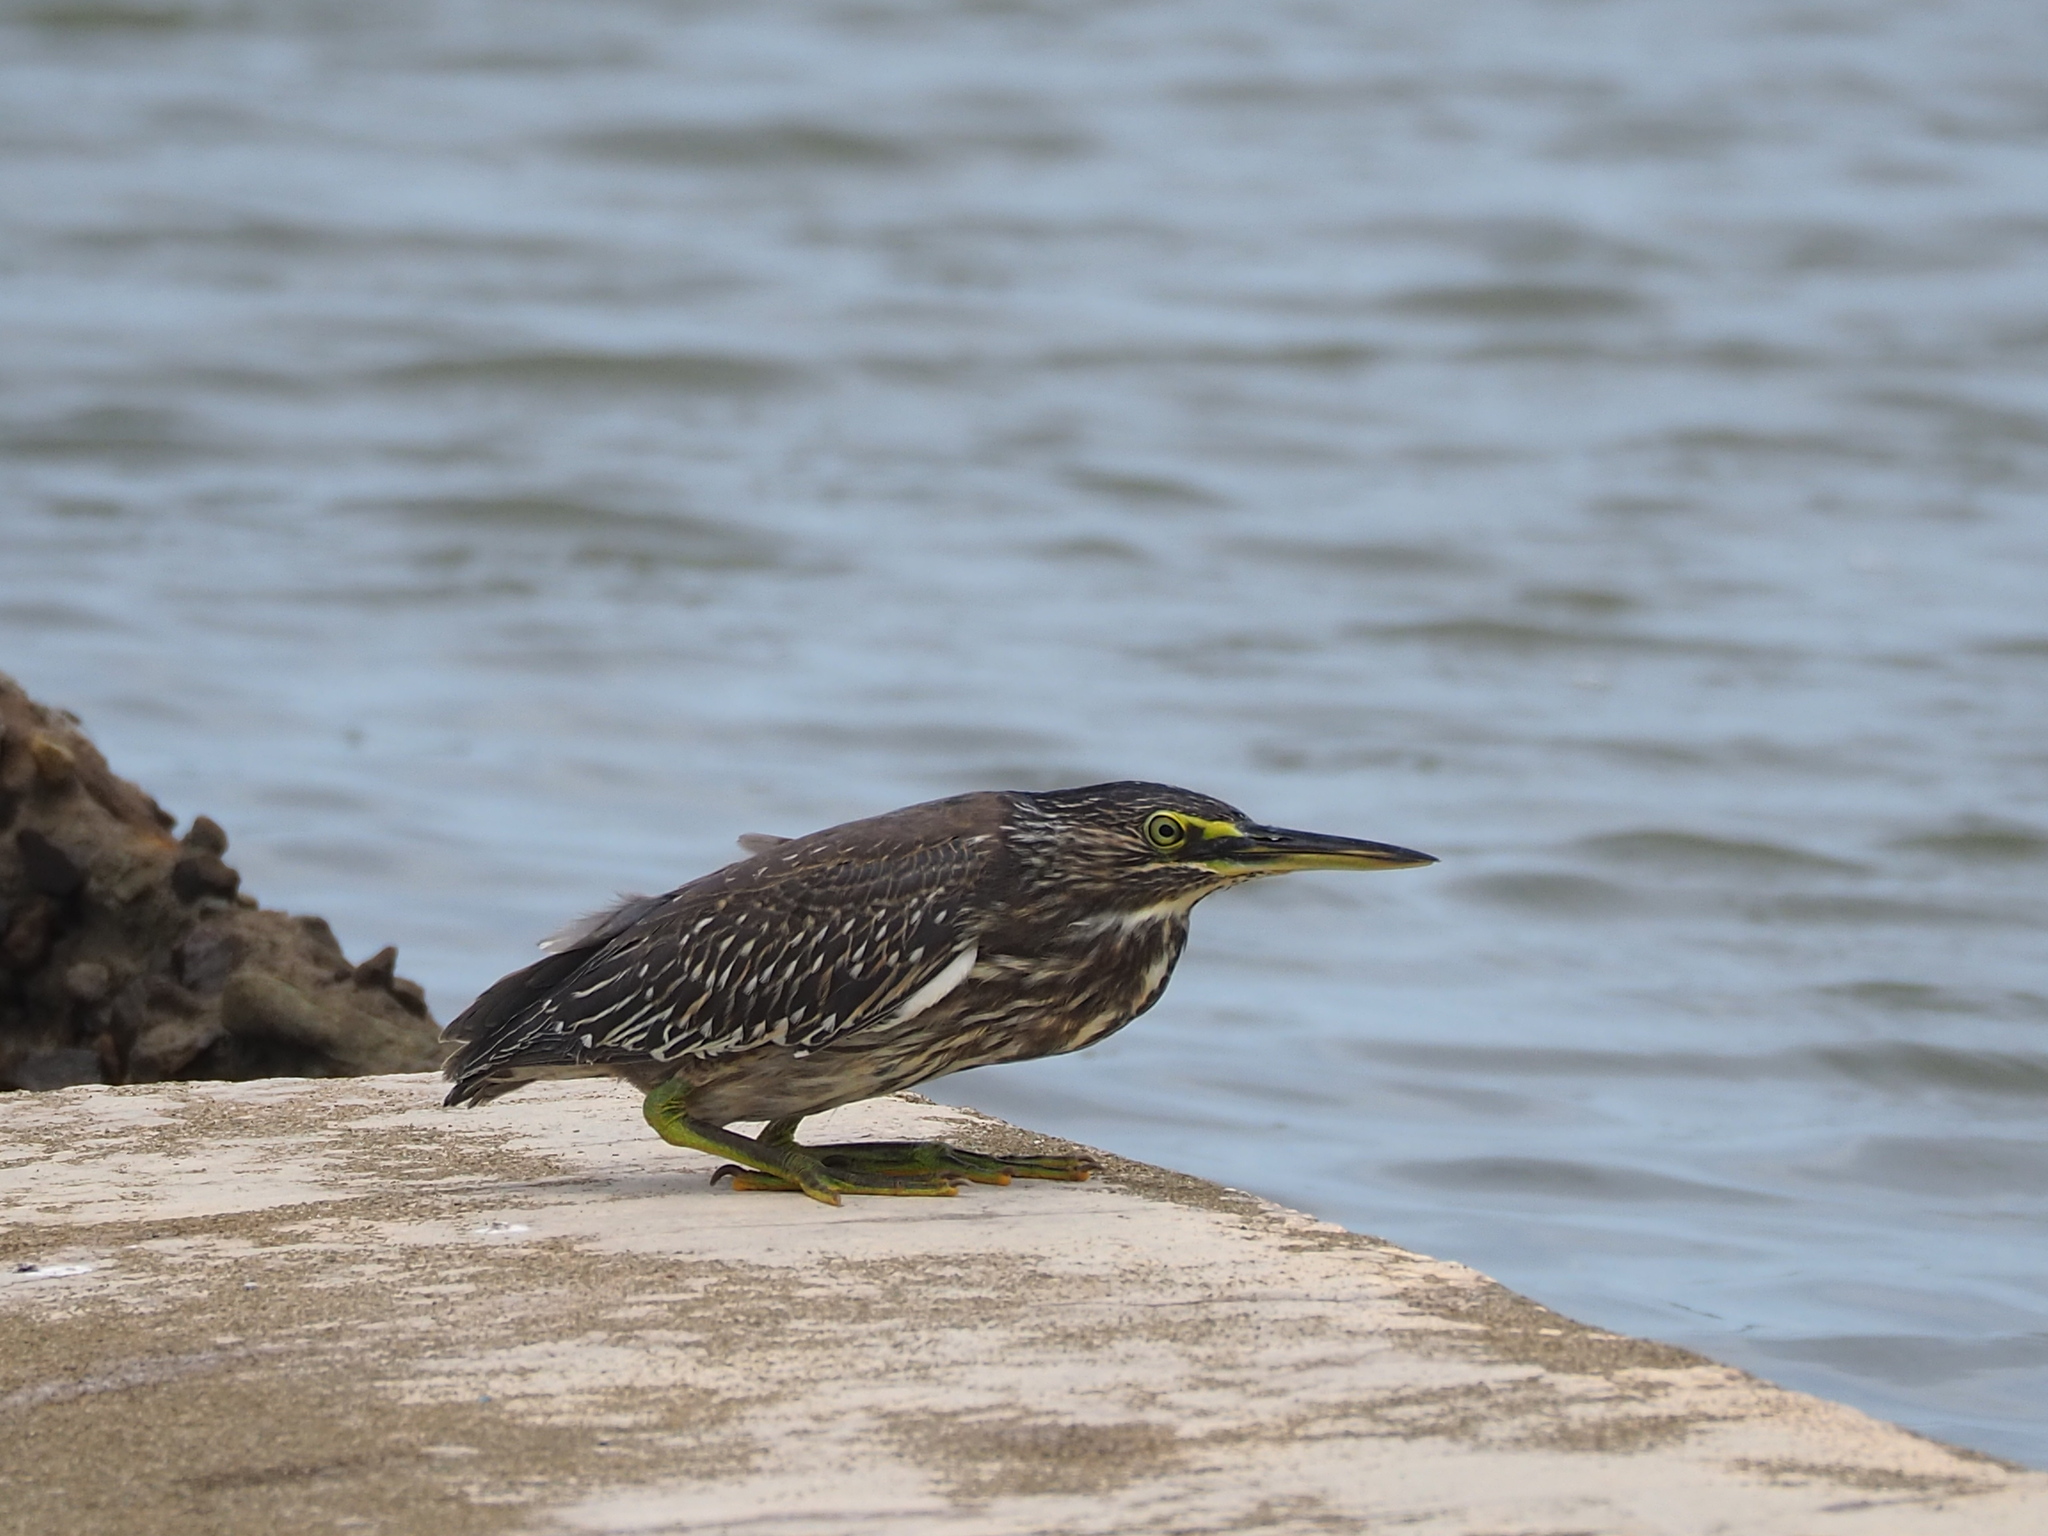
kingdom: Animalia
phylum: Chordata
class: Aves
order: Pelecaniformes
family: Ardeidae
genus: Butorides
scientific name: Butorides striata
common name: Striated heron
